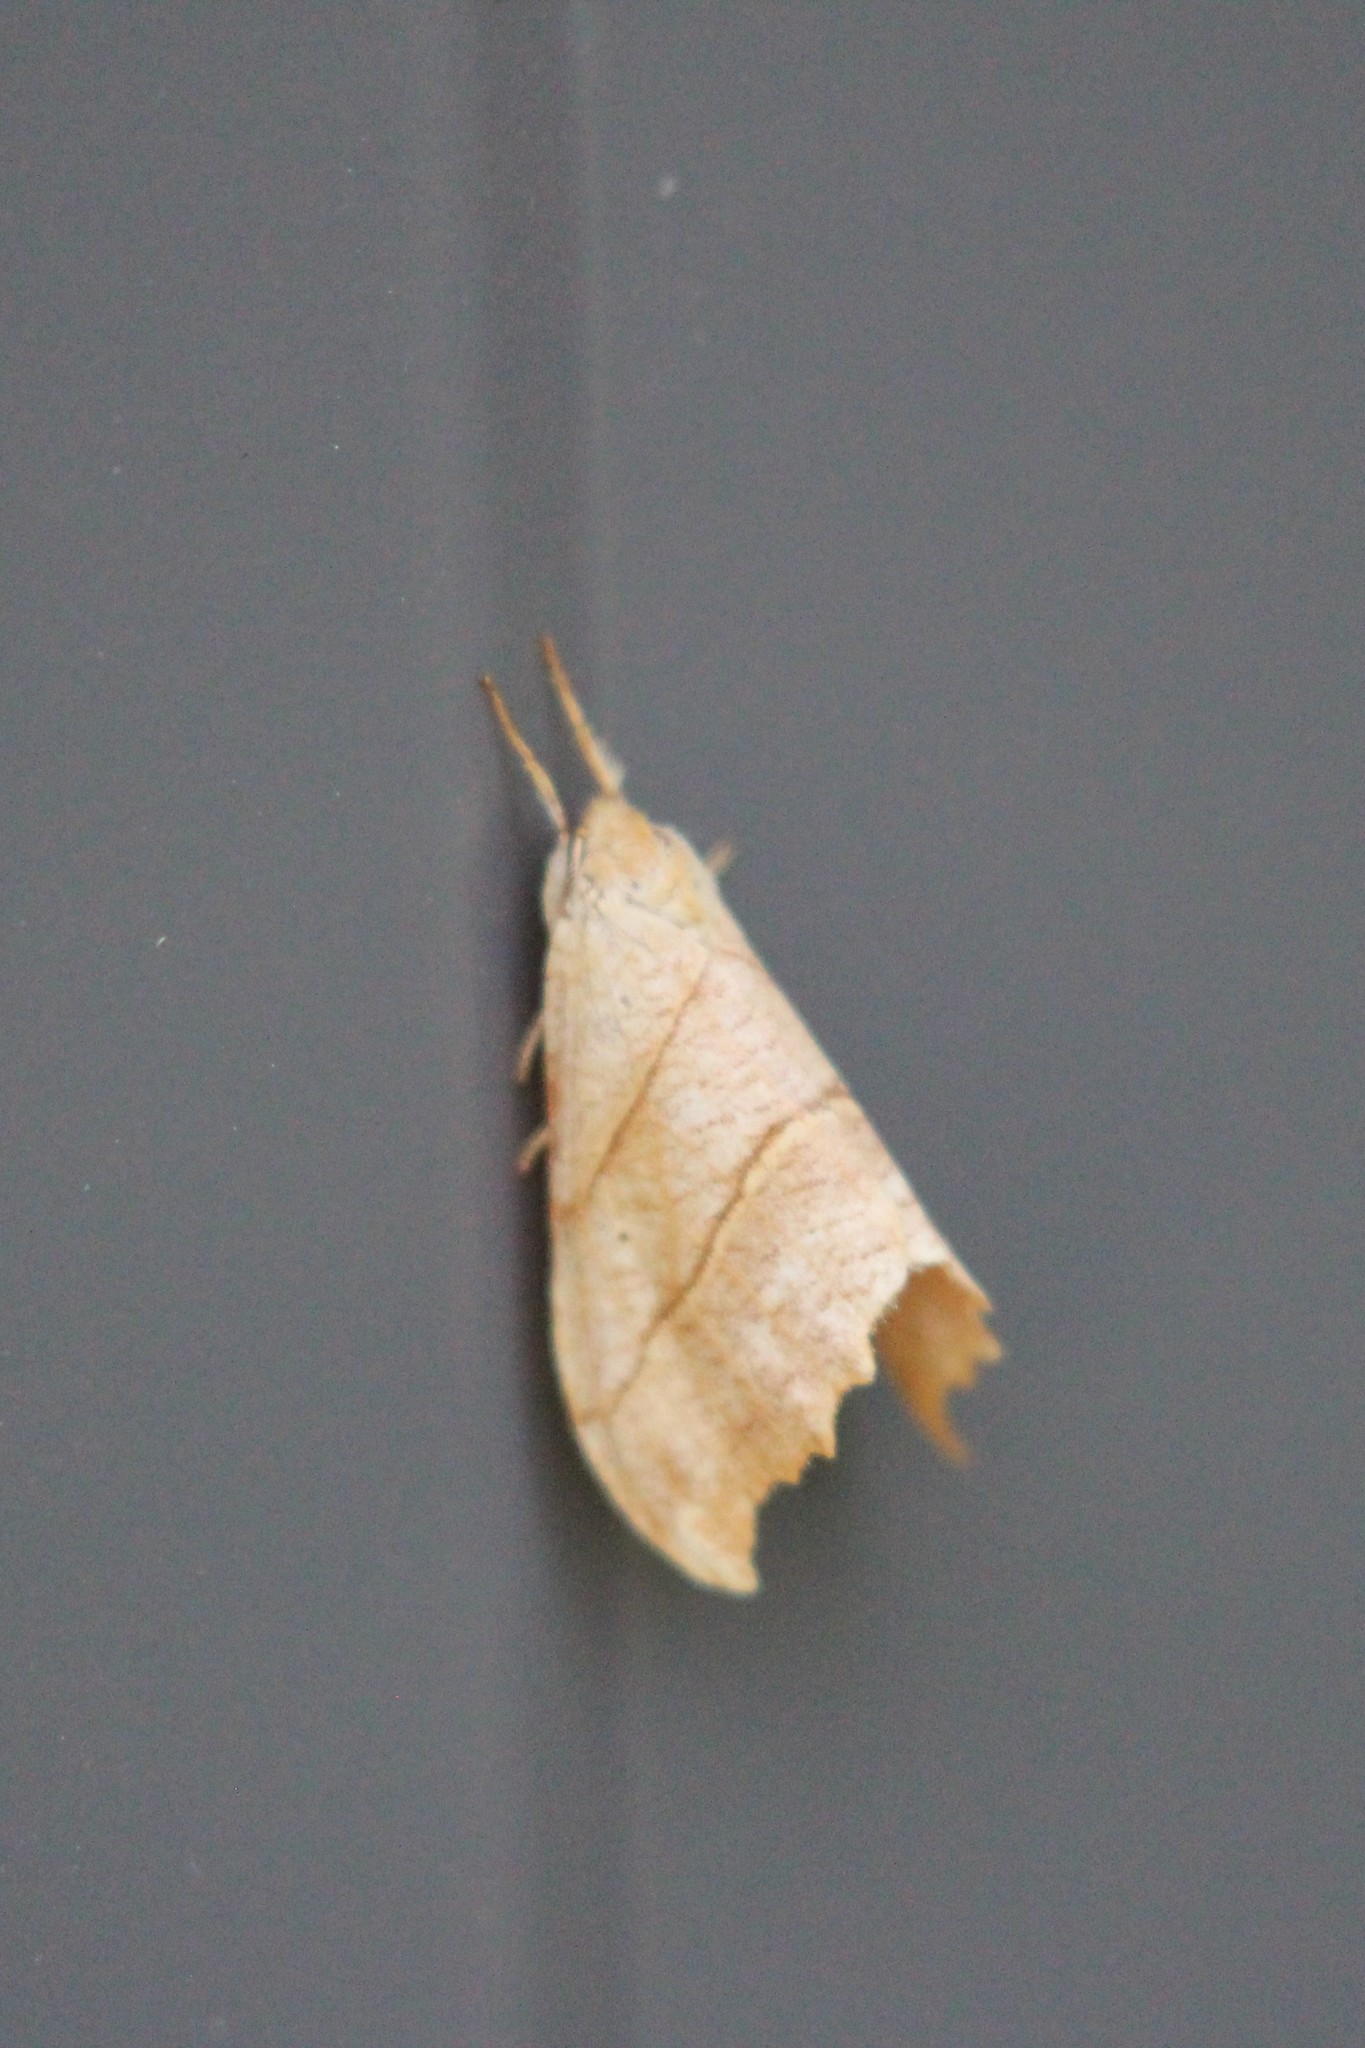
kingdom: Animalia
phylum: Arthropoda
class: Insecta
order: Lepidoptera
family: Drepanidae
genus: Falcaria
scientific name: Falcaria bilineata
